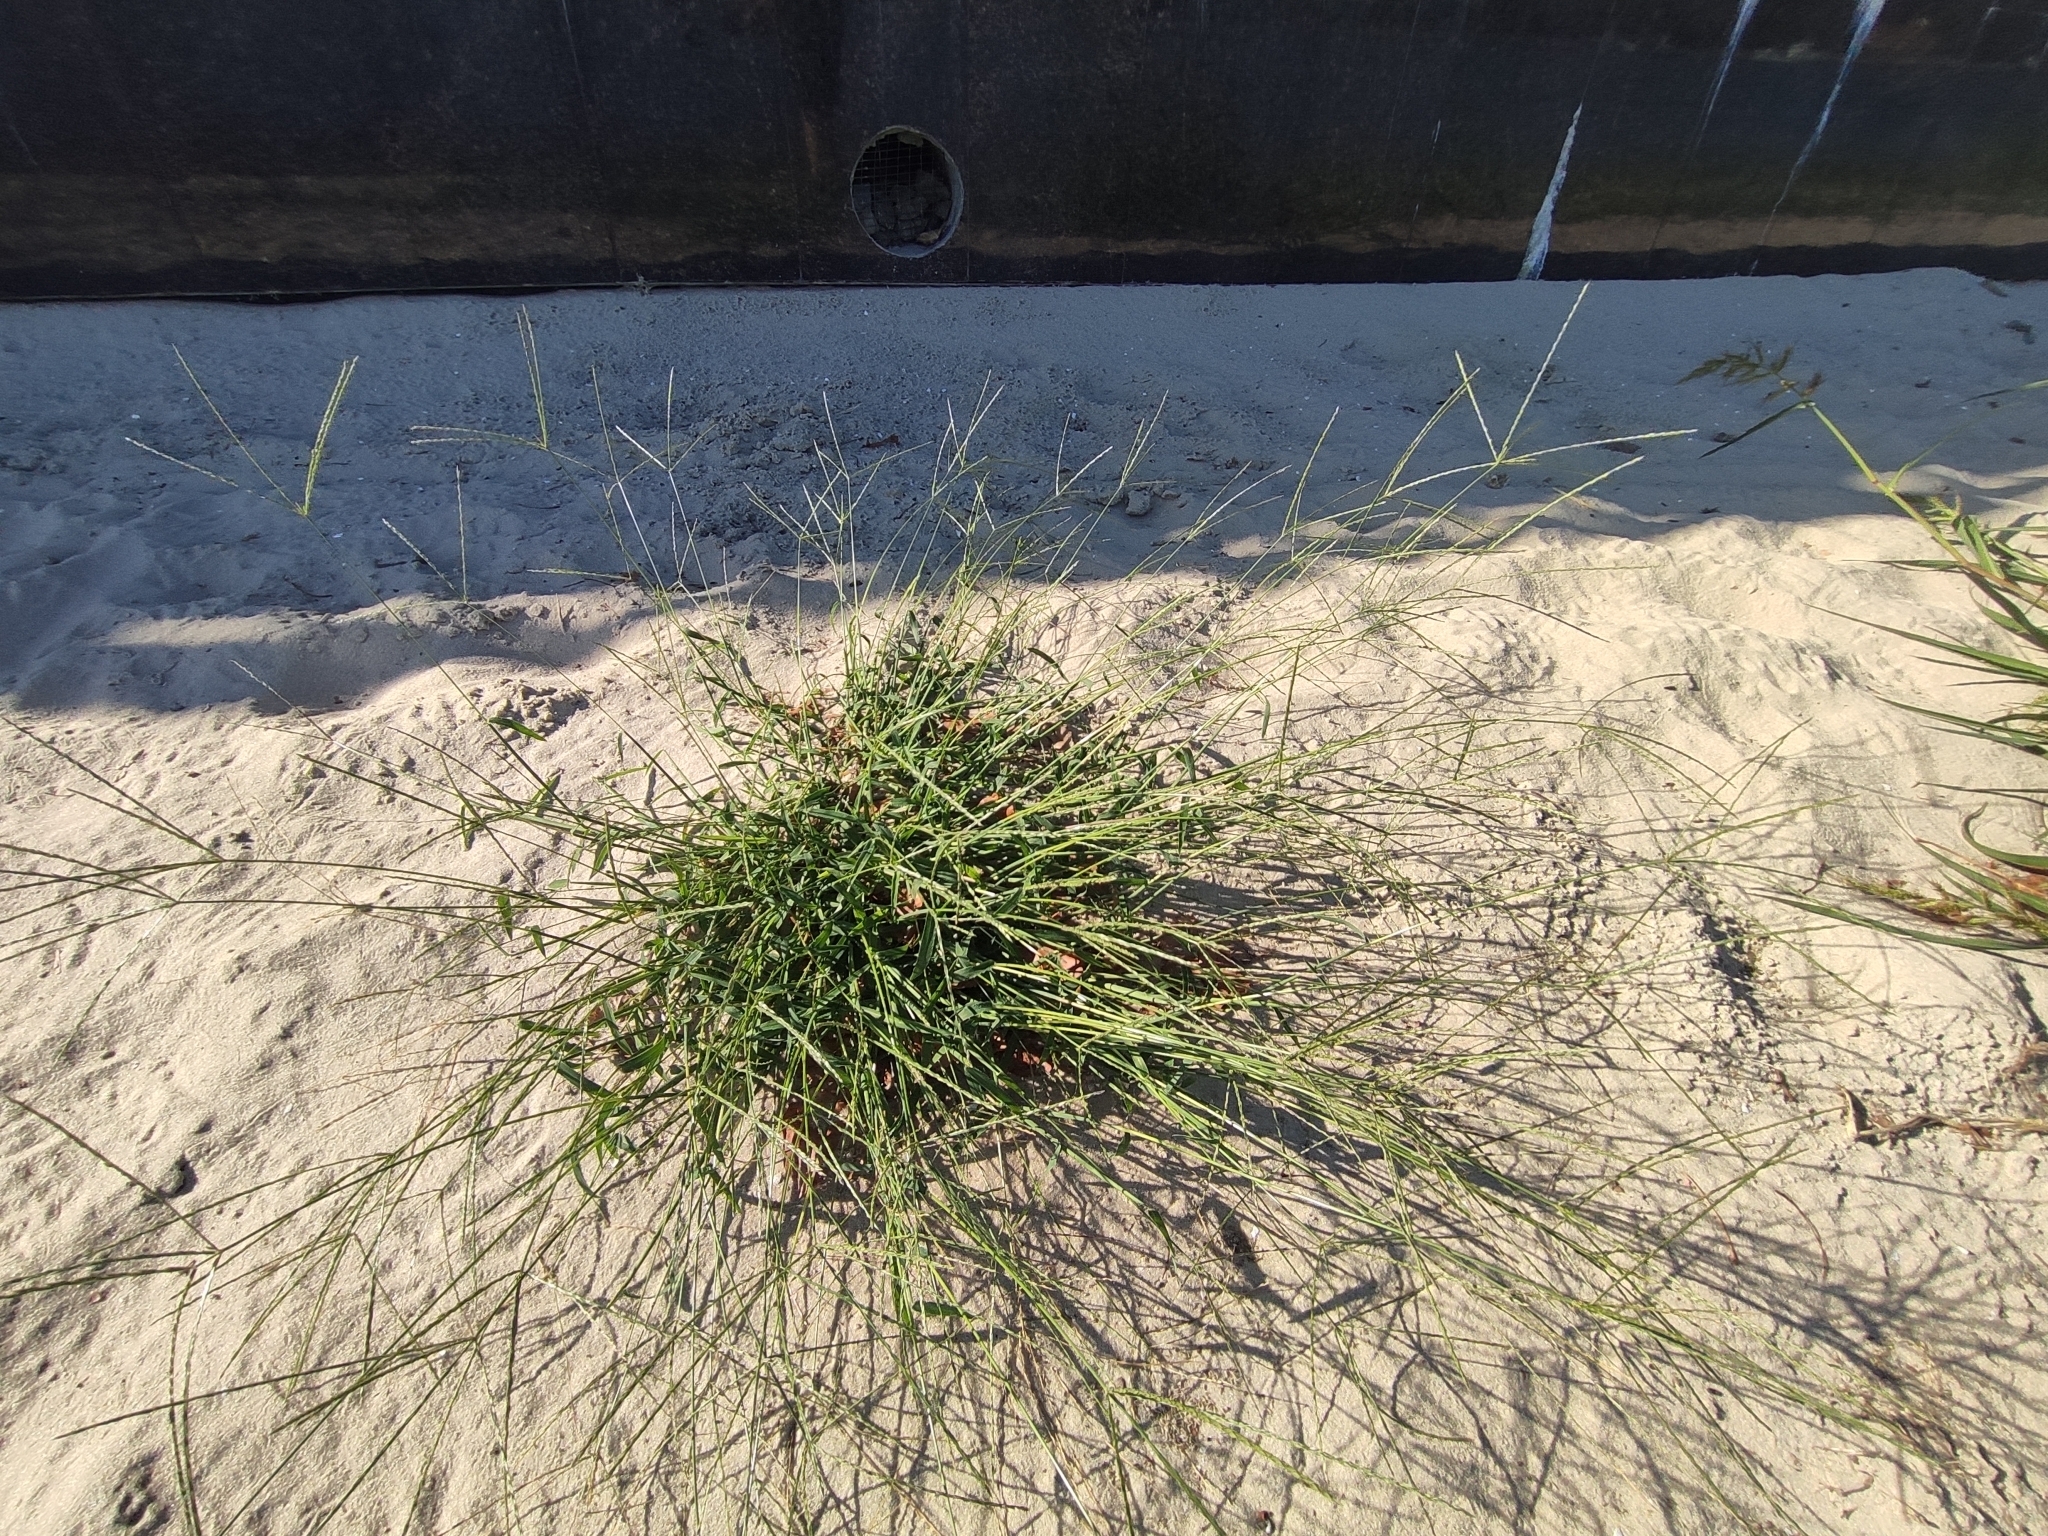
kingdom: Plantae
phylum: Tracheophyta
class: Liliopsida
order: Poales
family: Poaceae
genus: Digitaria
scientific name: Digitaria sanguinalis
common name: Hairy crabgrass
